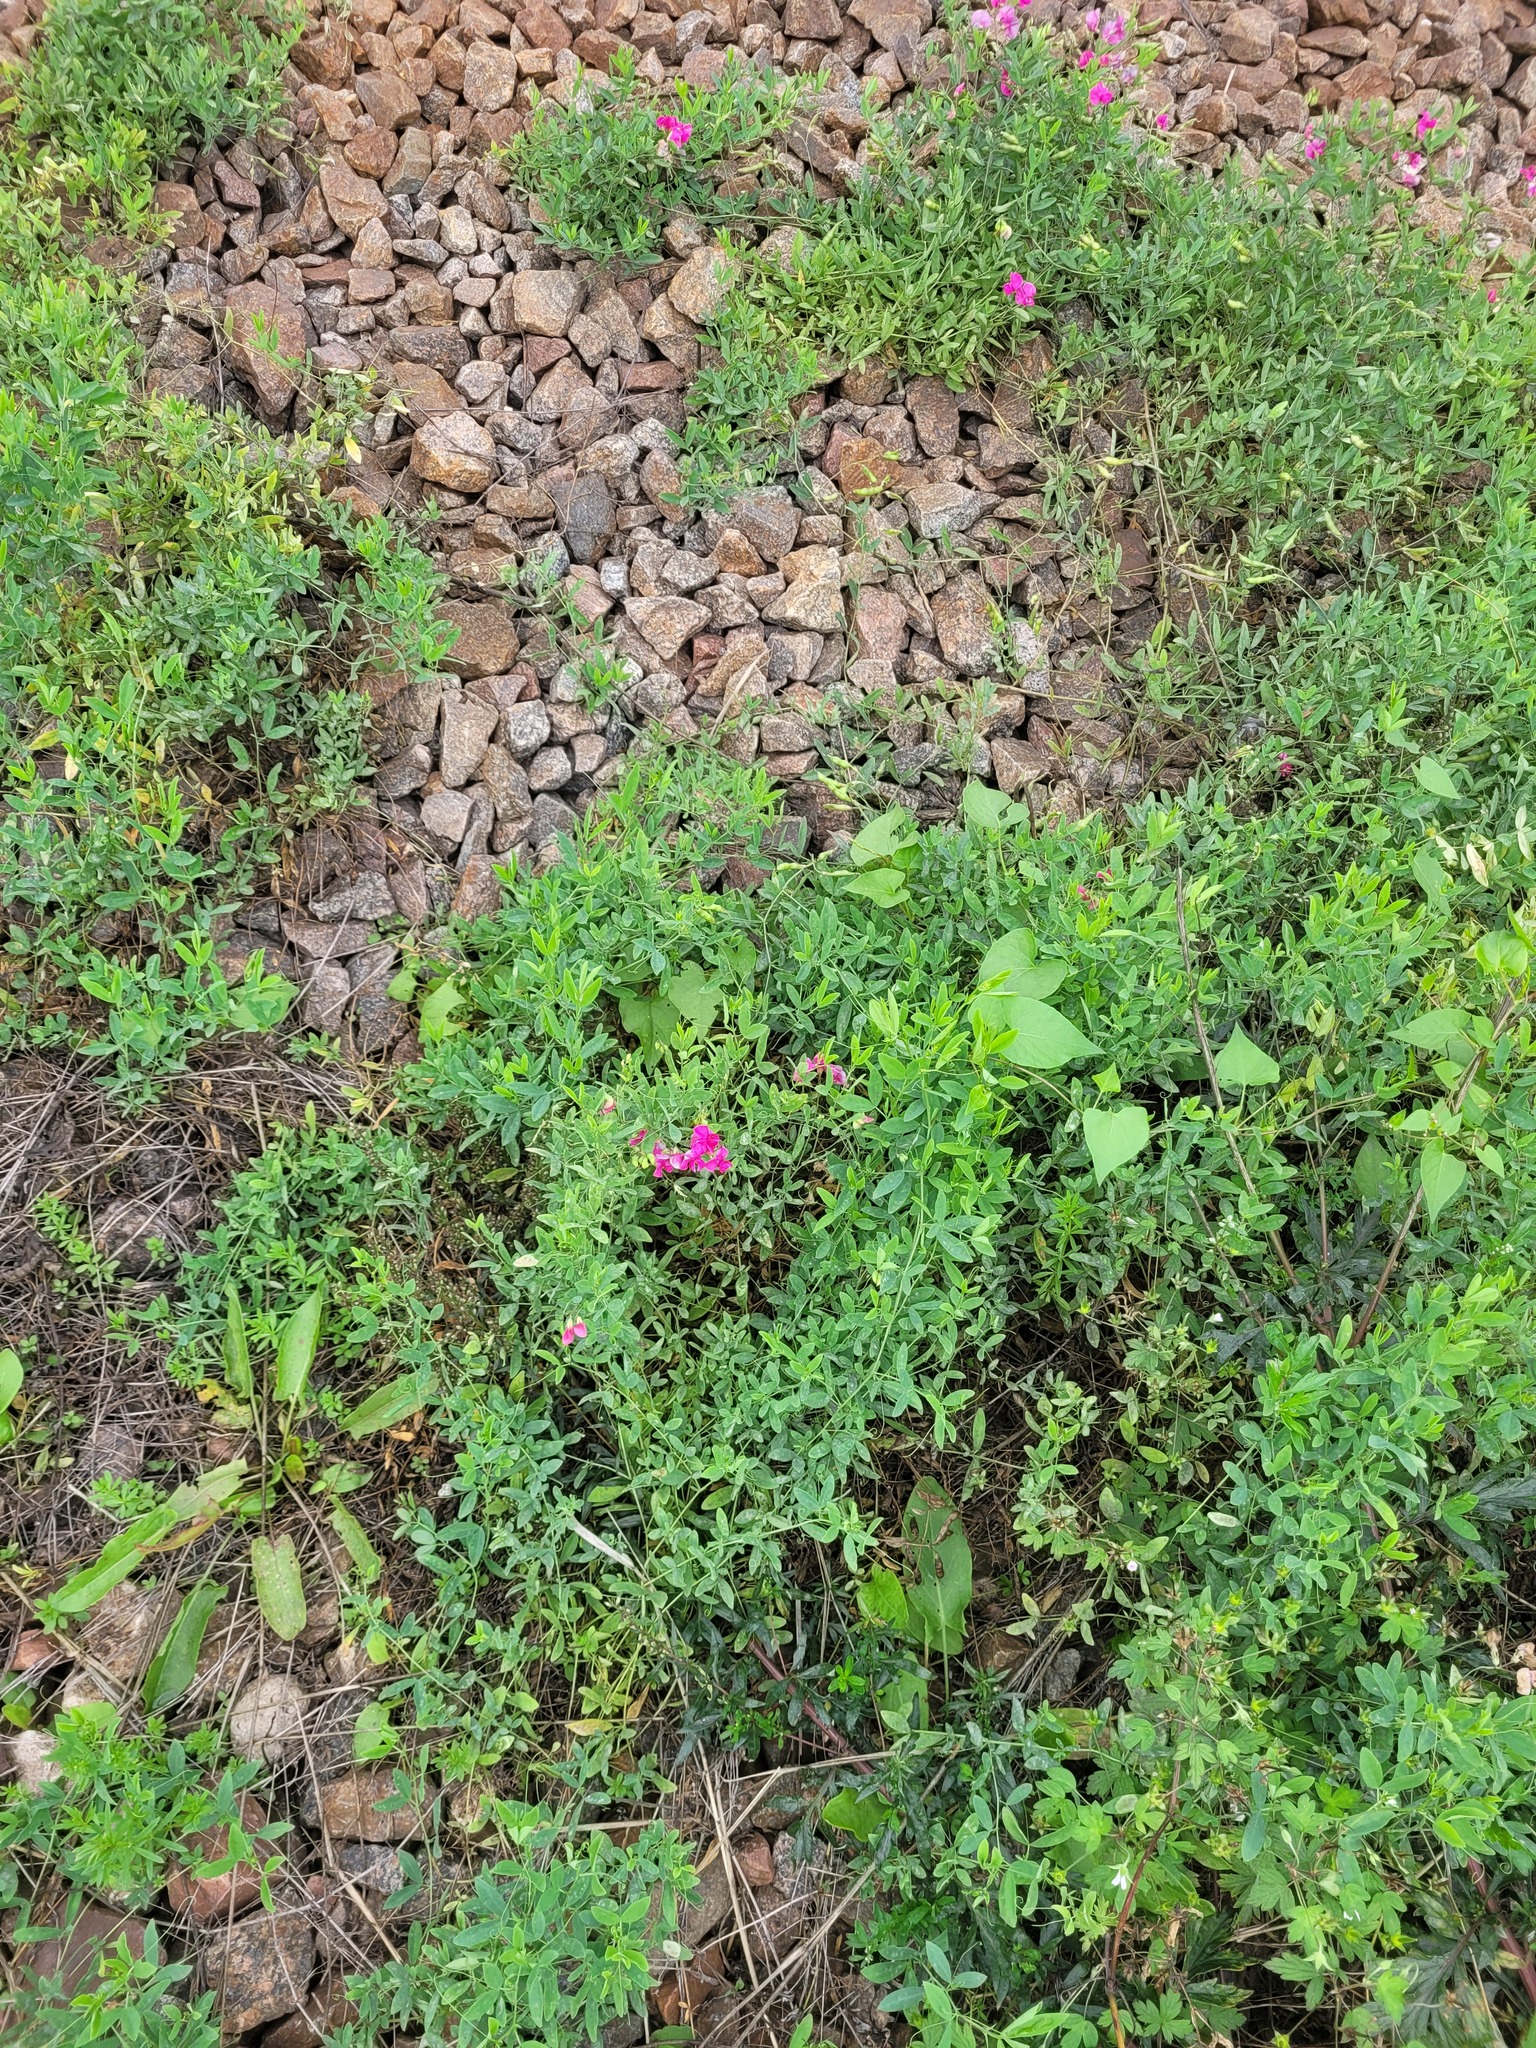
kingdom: Plantae
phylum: Tracheophyta
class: Magnoliopsida
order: Fabales
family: Fabaceae
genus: Lathyrus
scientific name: Lathyrus tuberosus
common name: Tuberous pea
